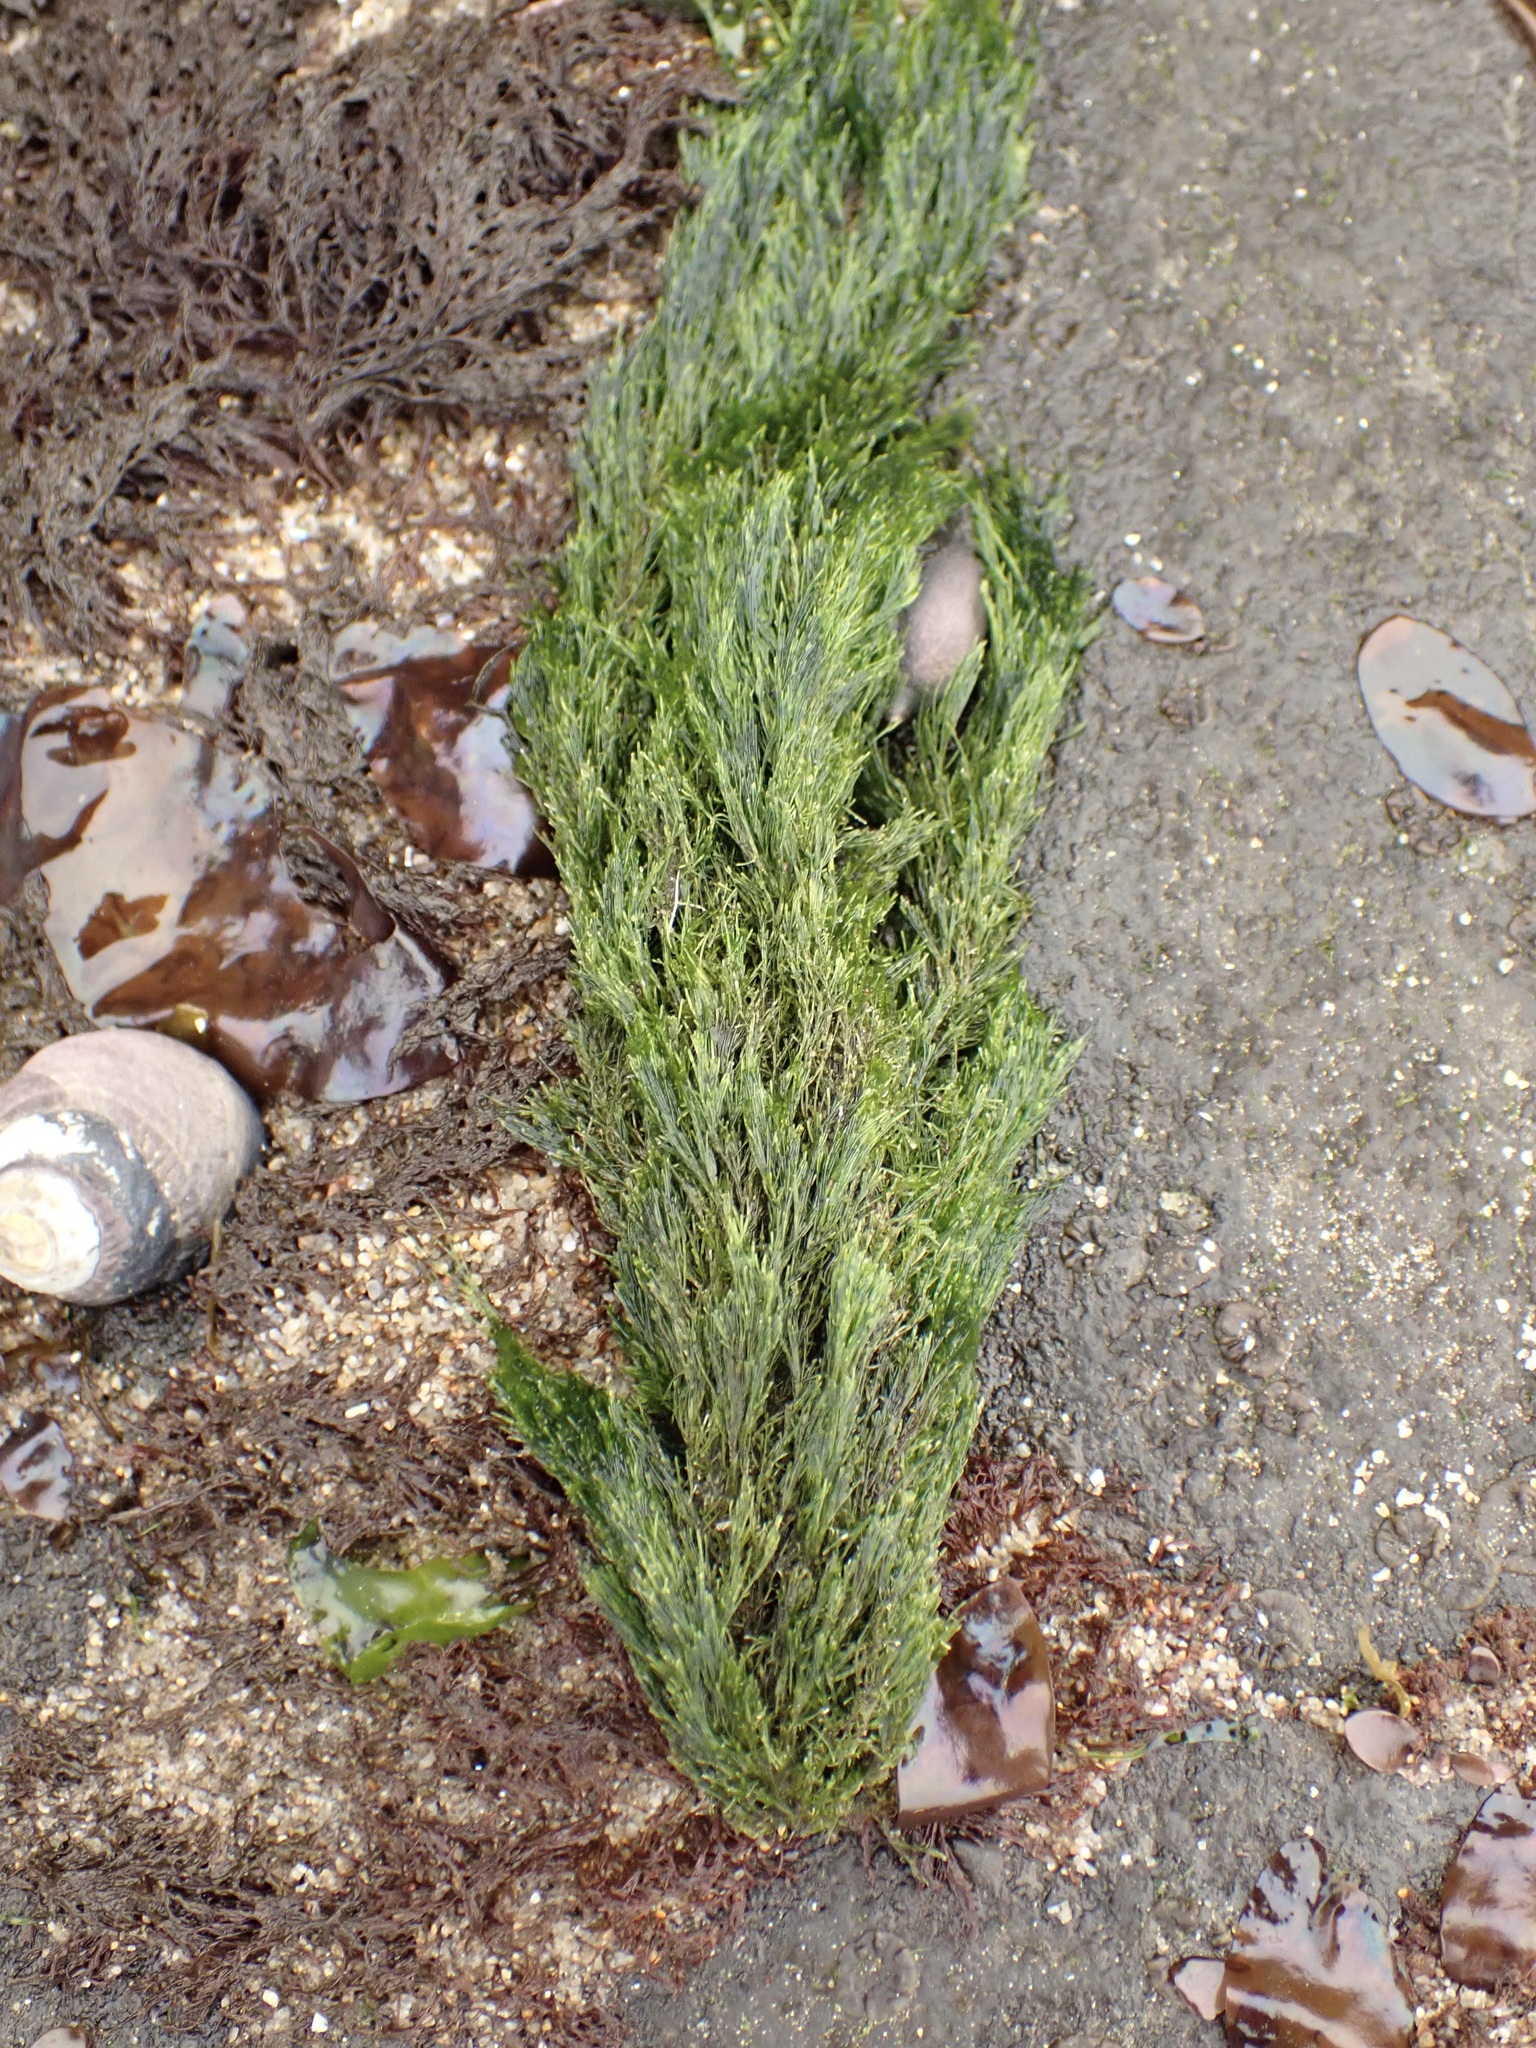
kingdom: Plantae
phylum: Chlorophyta
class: Ulvophyceae
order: Ulotrichales
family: Ulotrichaceae
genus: Acrosiphonia
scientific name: Acrosiphonia
